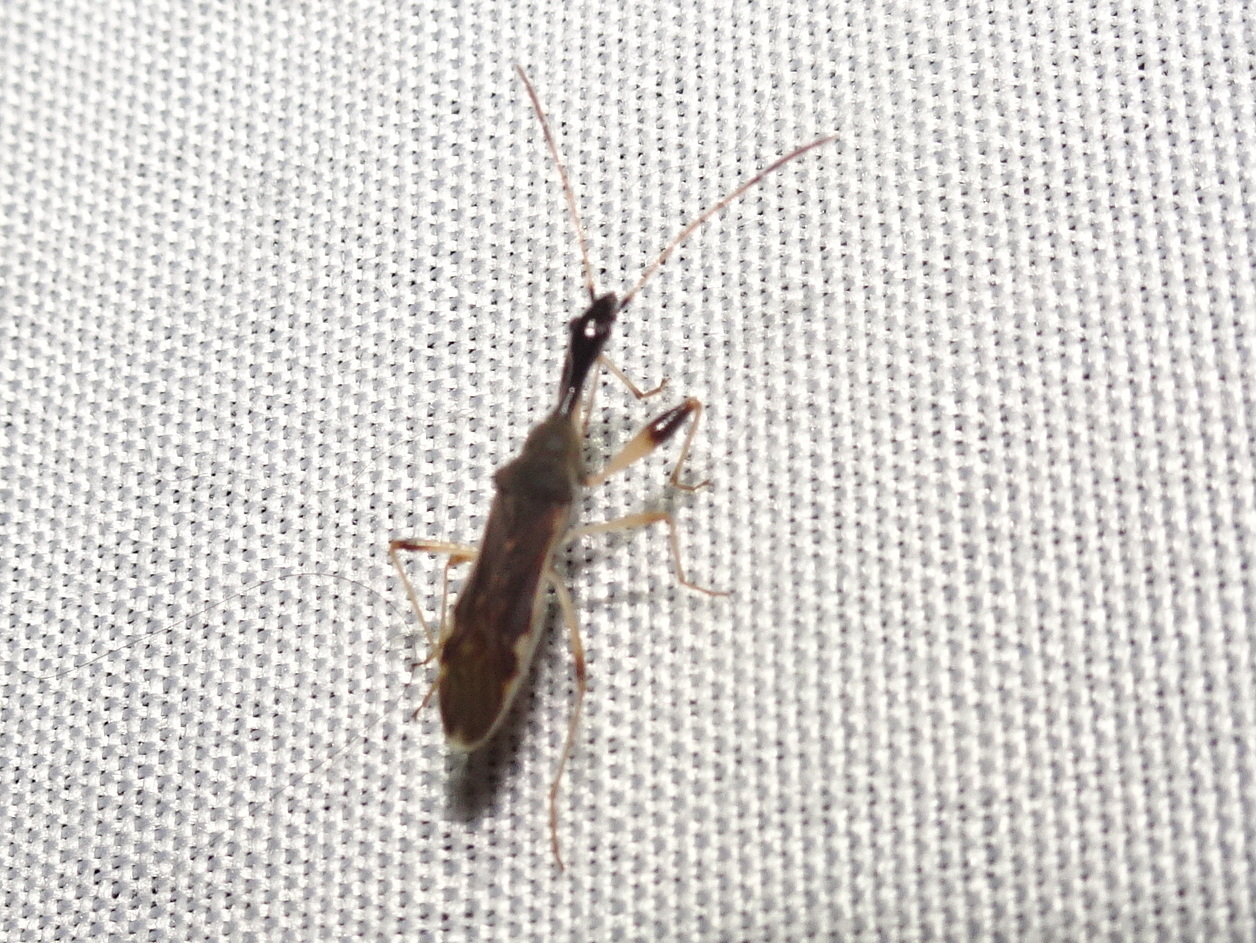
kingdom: Animalia
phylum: Arthropoda
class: Insecta
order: Hemiptera
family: Rhyparochromidae
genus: Myodocha
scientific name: Myodocha serripes
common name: Long-necked seed bug
